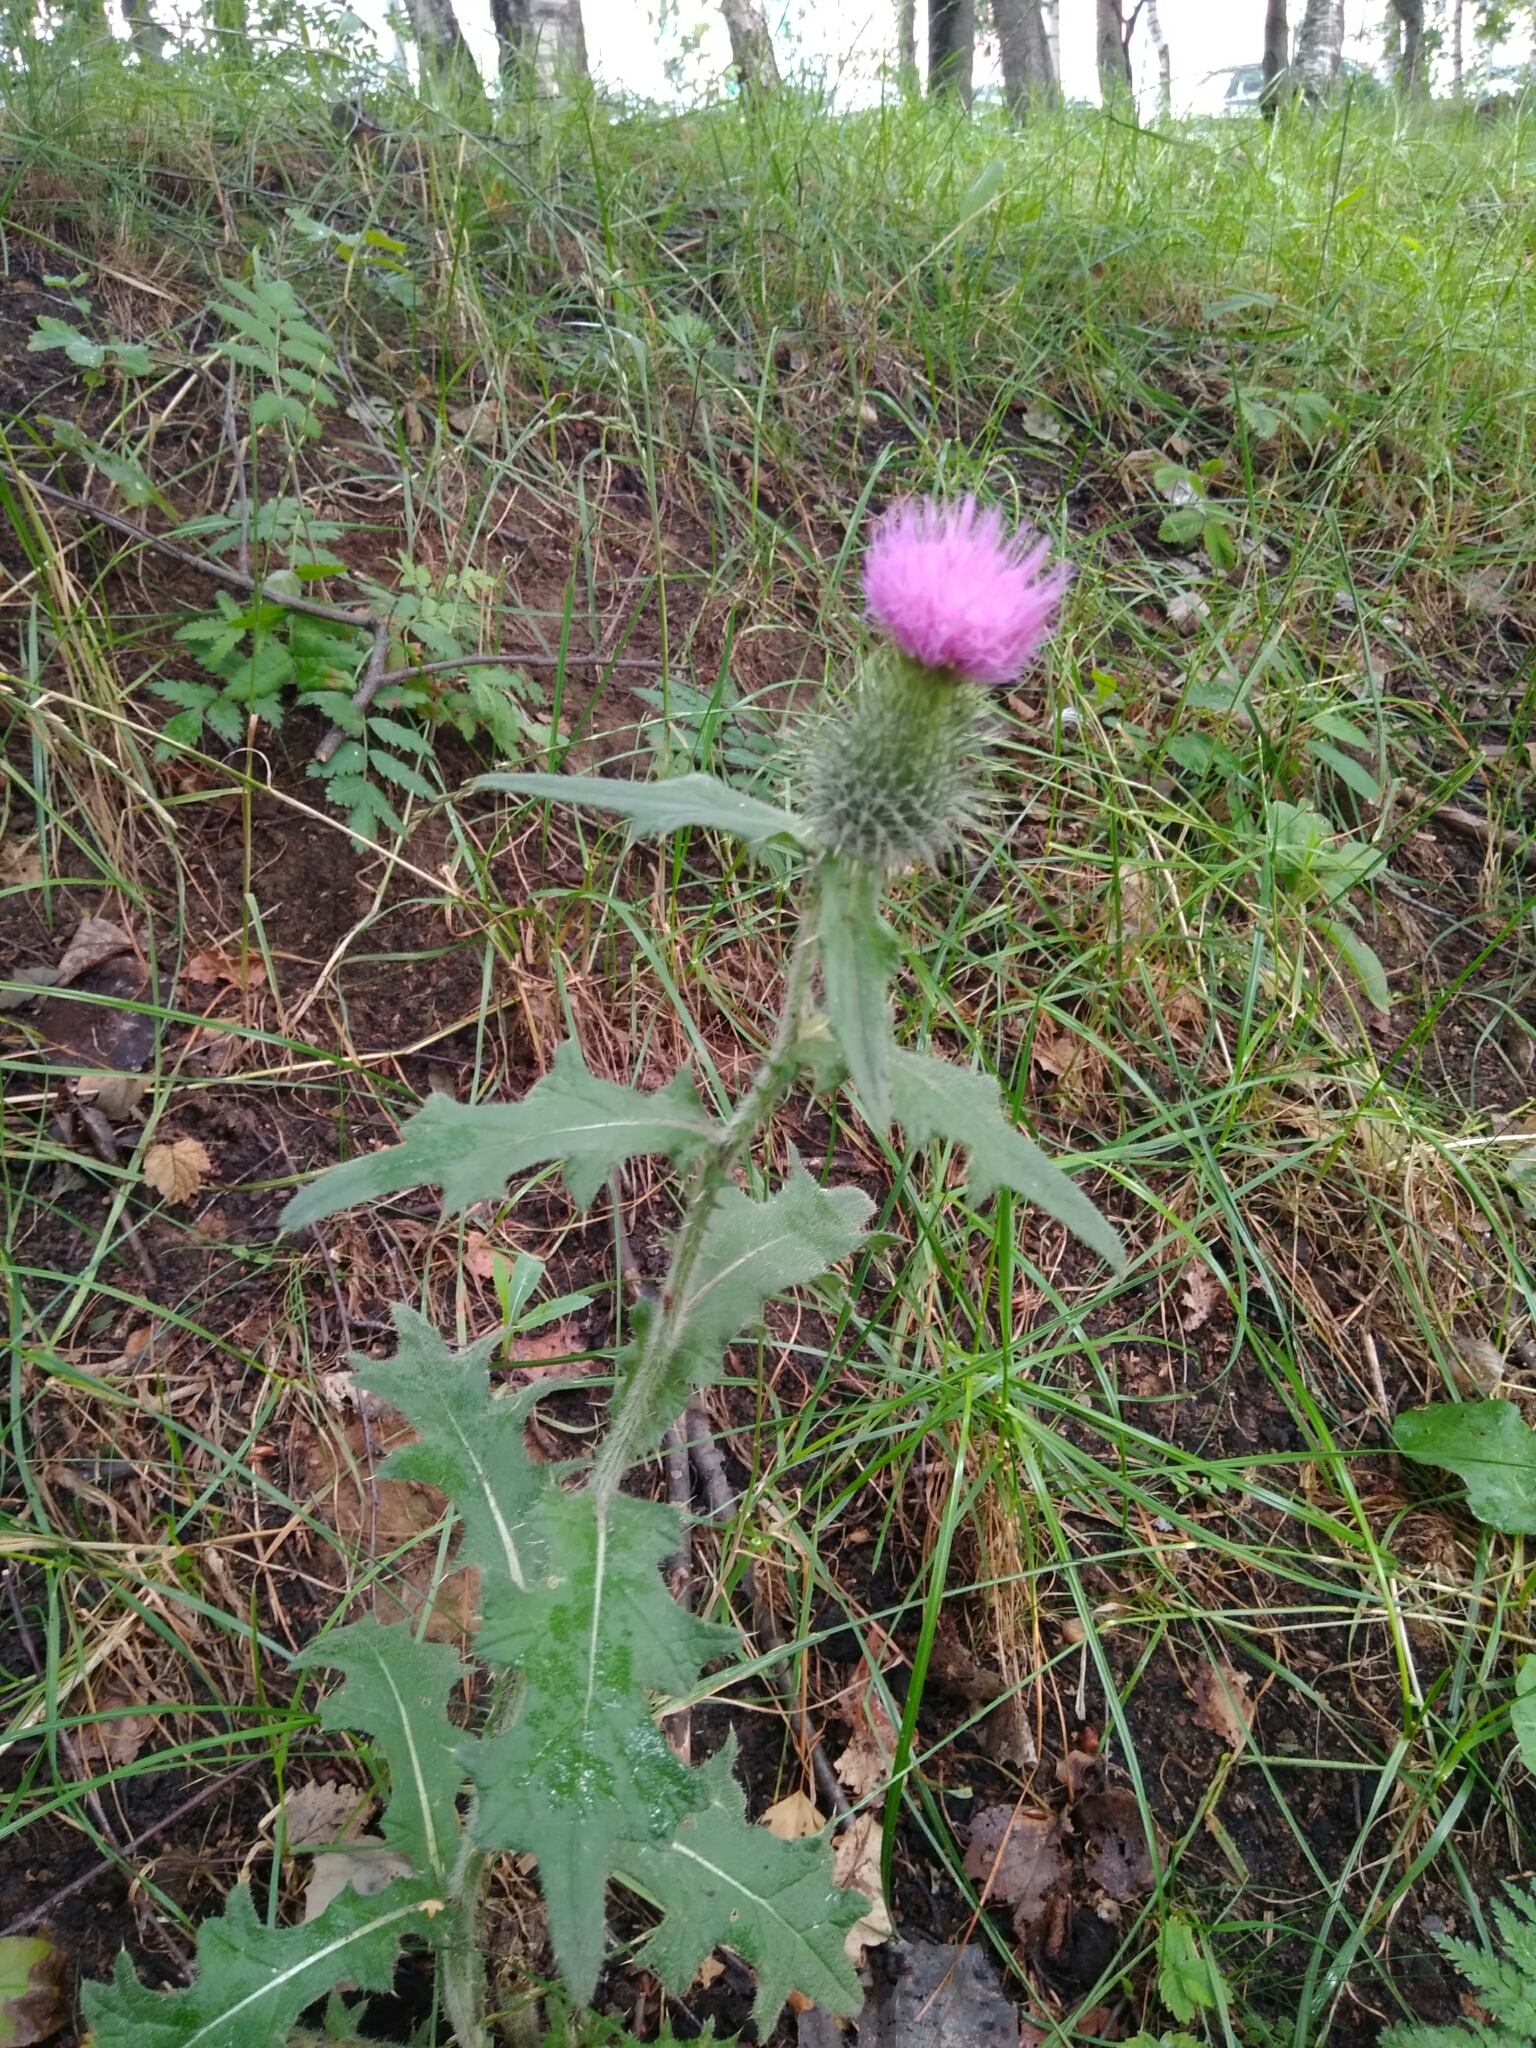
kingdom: Plantae
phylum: Tracheophyta
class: Magnoliopsida
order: Asterales
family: Asteraceae
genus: Cirsium
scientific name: Cirsium vulgare
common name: Bull thistle
